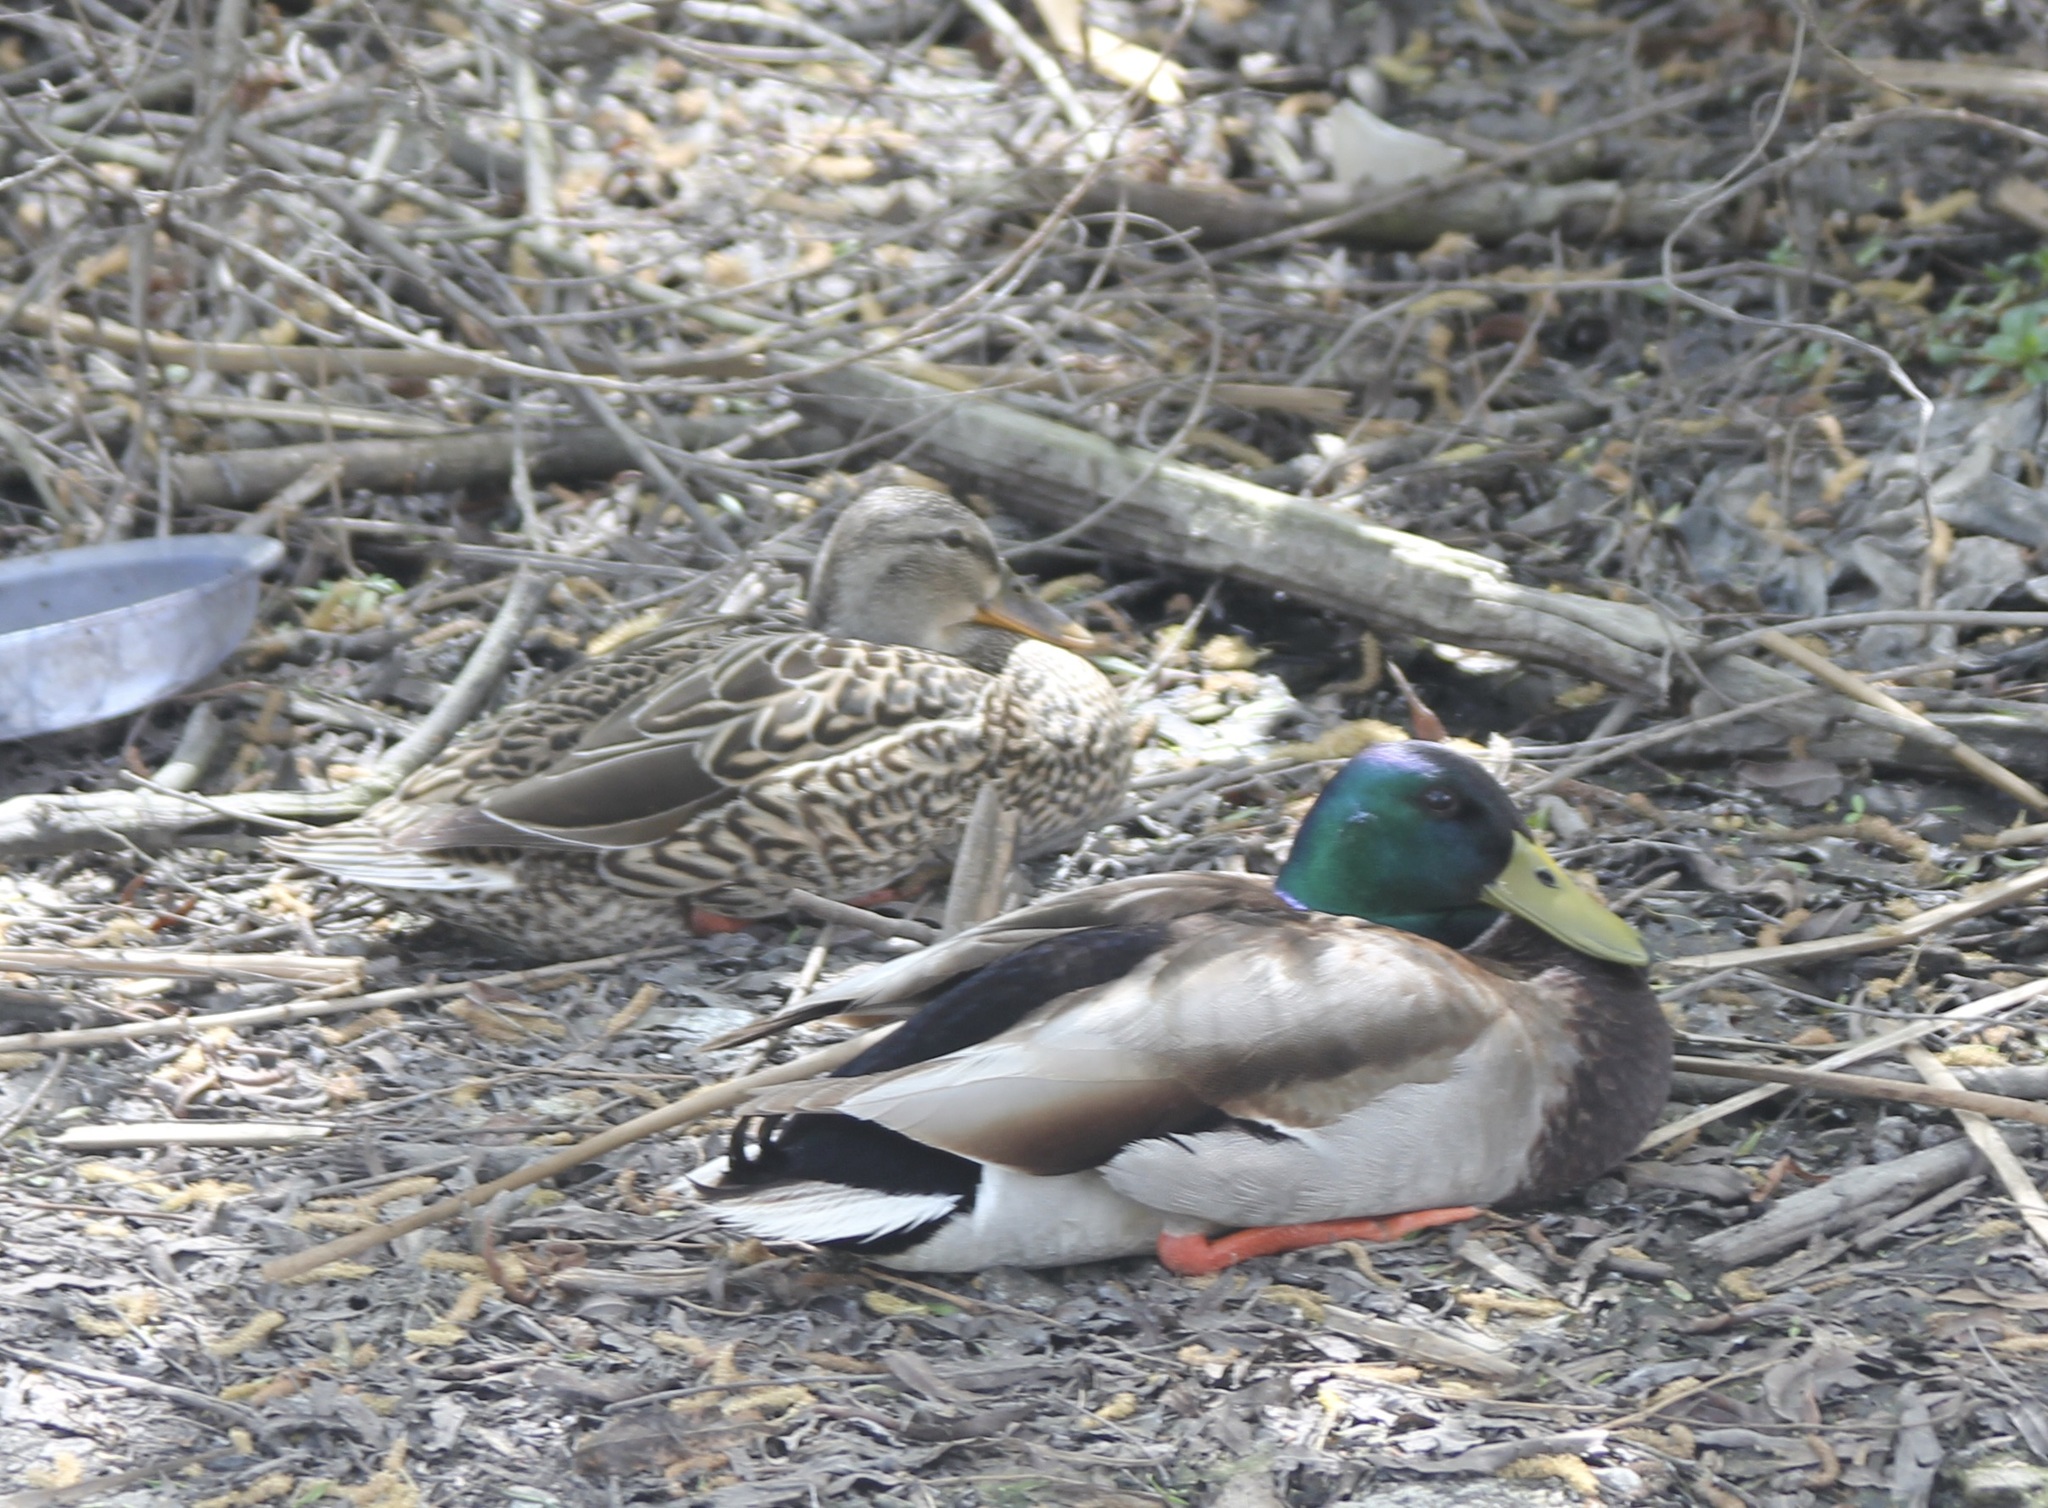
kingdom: Animalia
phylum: Chordata
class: Aves
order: Anseriformes
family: Anatidae
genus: Anas
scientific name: Anas platyrhynchos
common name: Mallard
